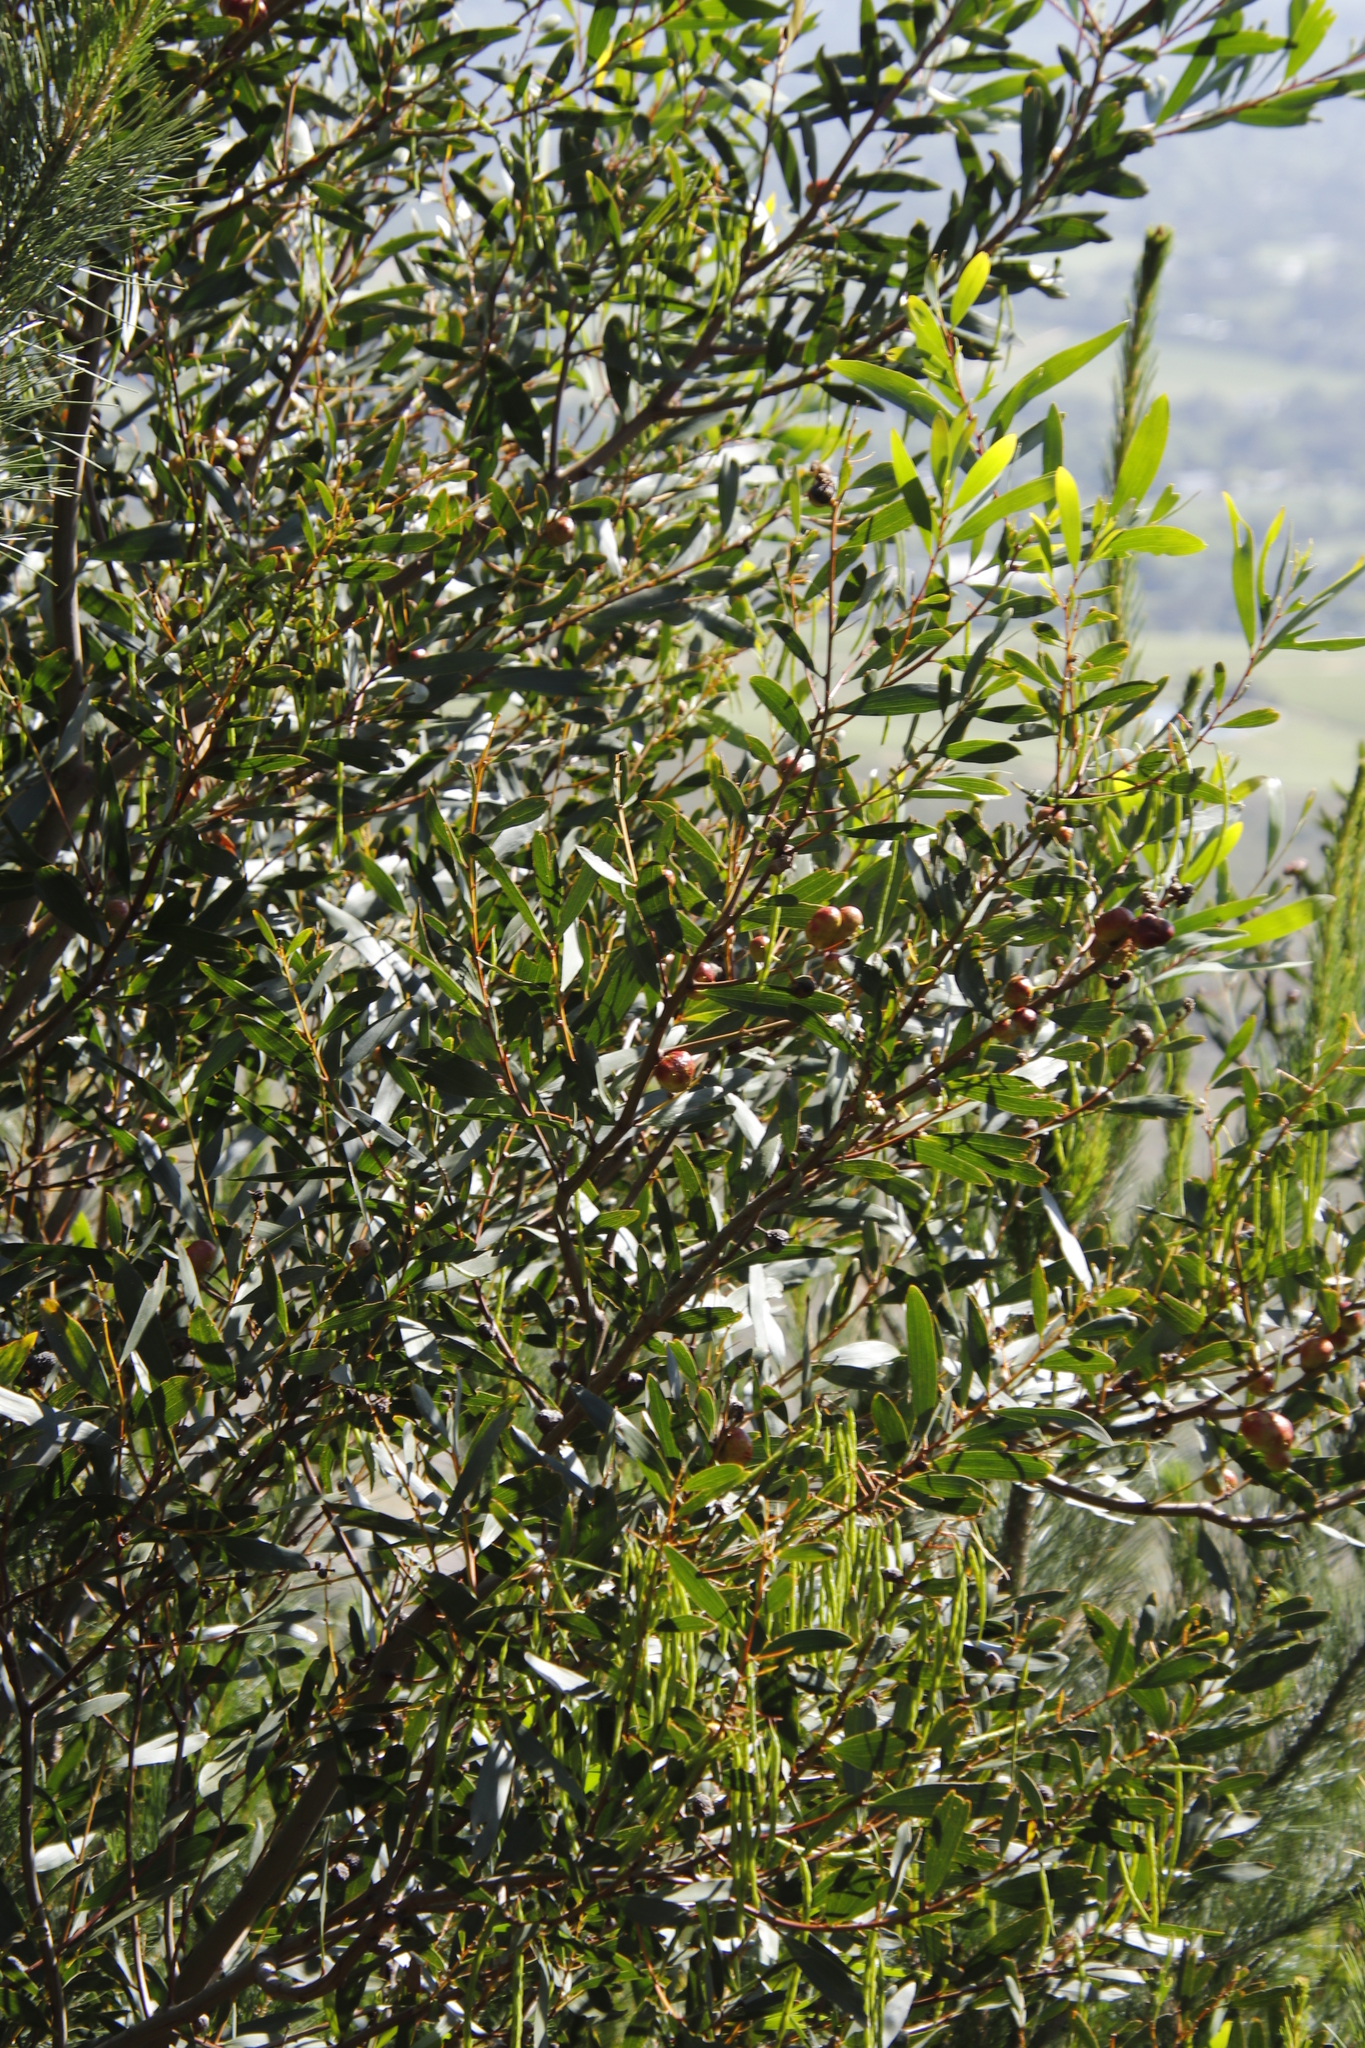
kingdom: Plantae
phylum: Tracheophyta
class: Magnoliopsida
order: Fabales
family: Fabaceae
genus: Acacia
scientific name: Acacia longifolia
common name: Sydney golden wattle
